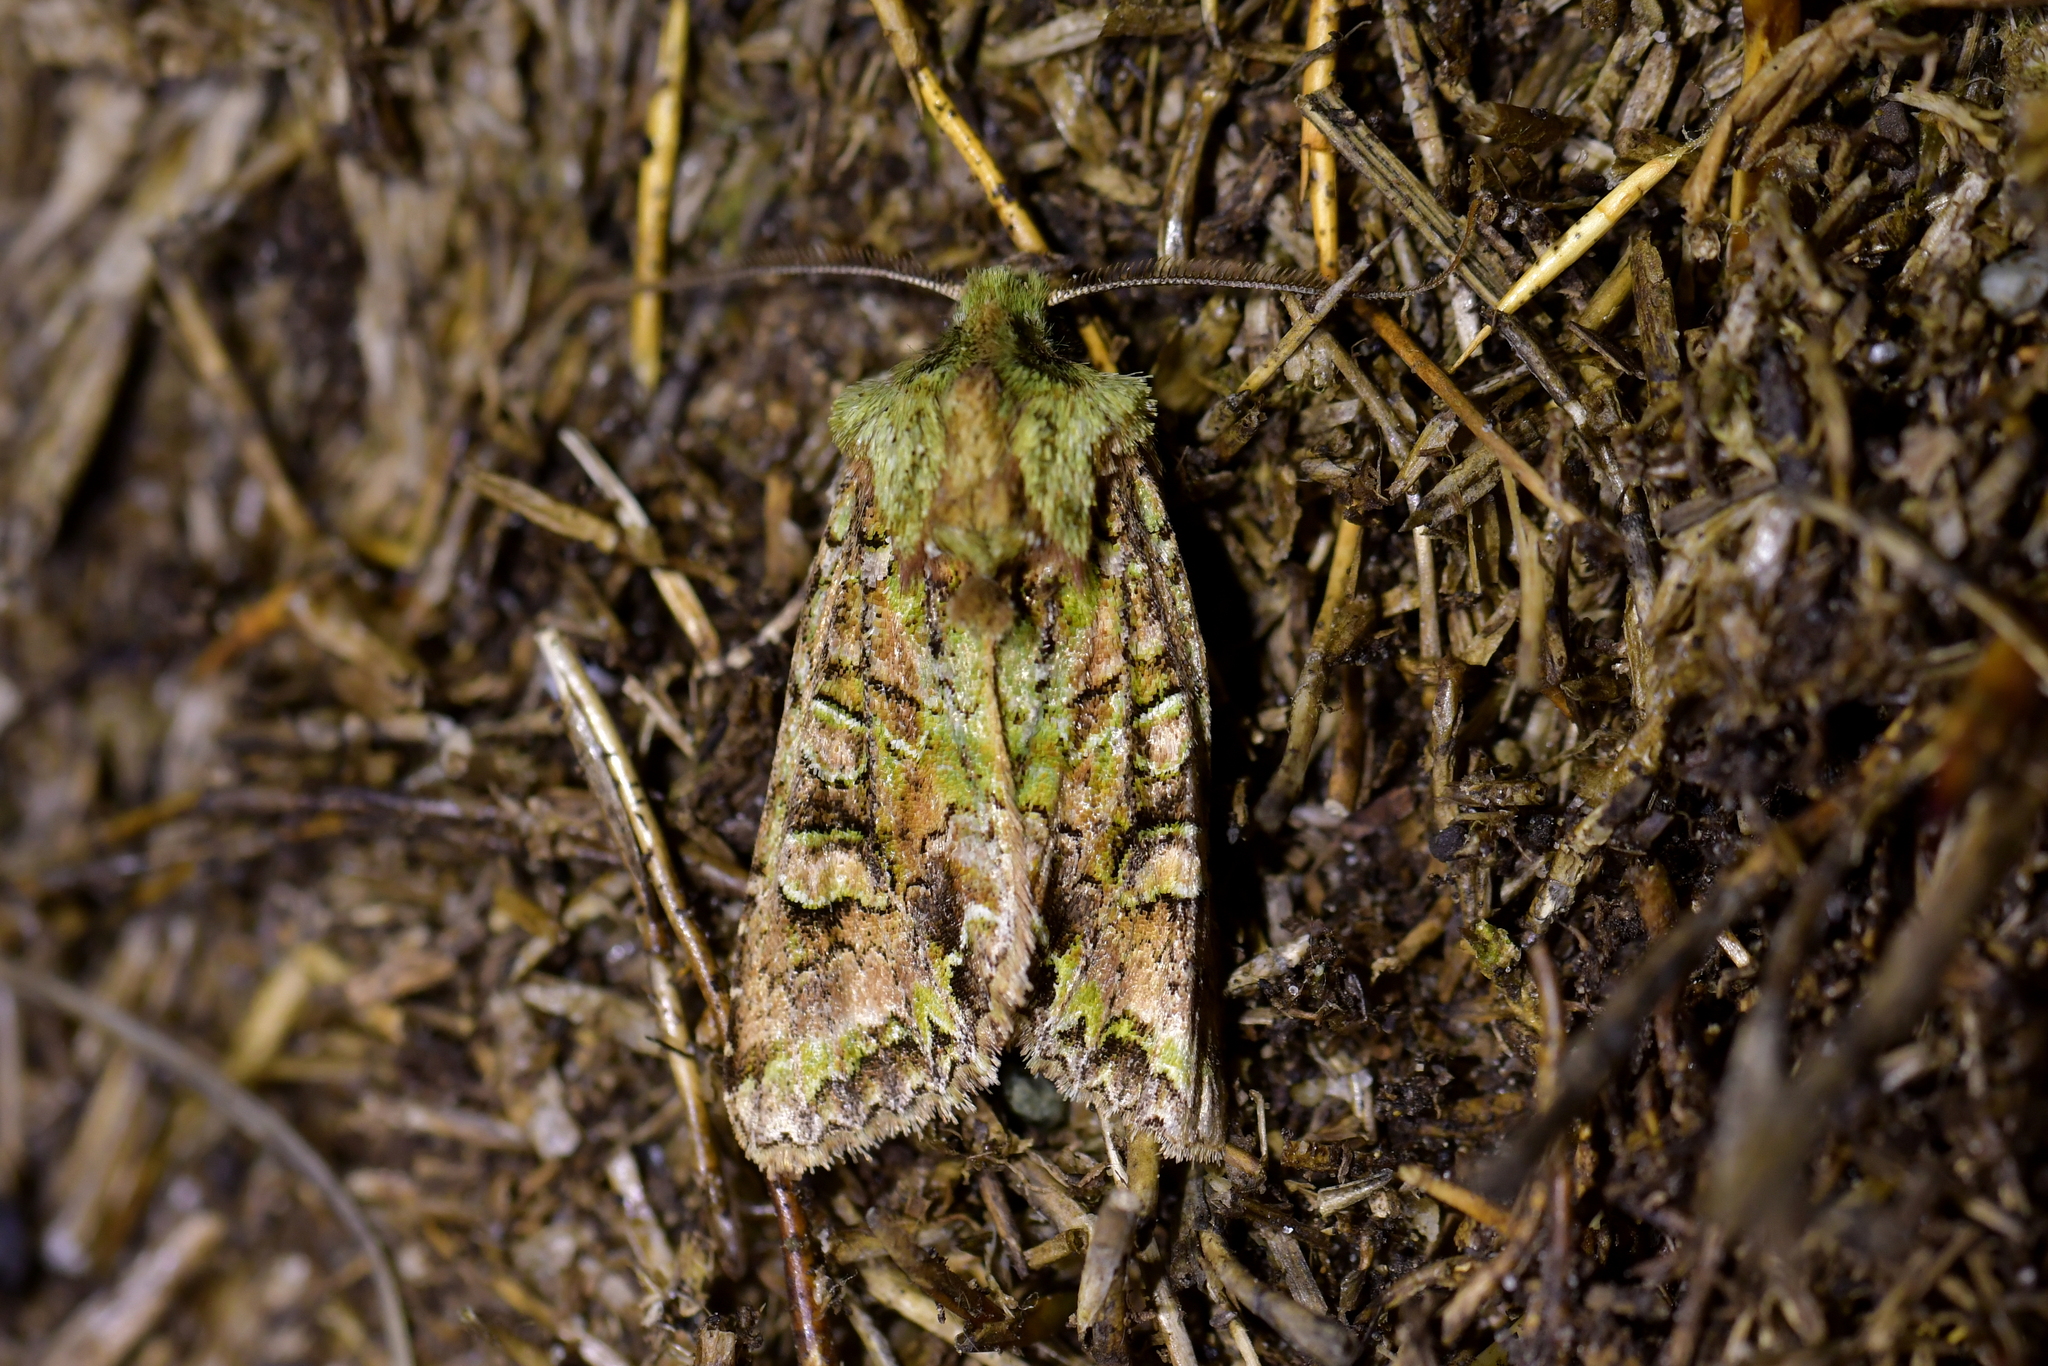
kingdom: Animalia
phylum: Arthropoda
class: Insecta
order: Lepidoptera
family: Noctuidae
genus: Ichneutica
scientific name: Ichneutica
